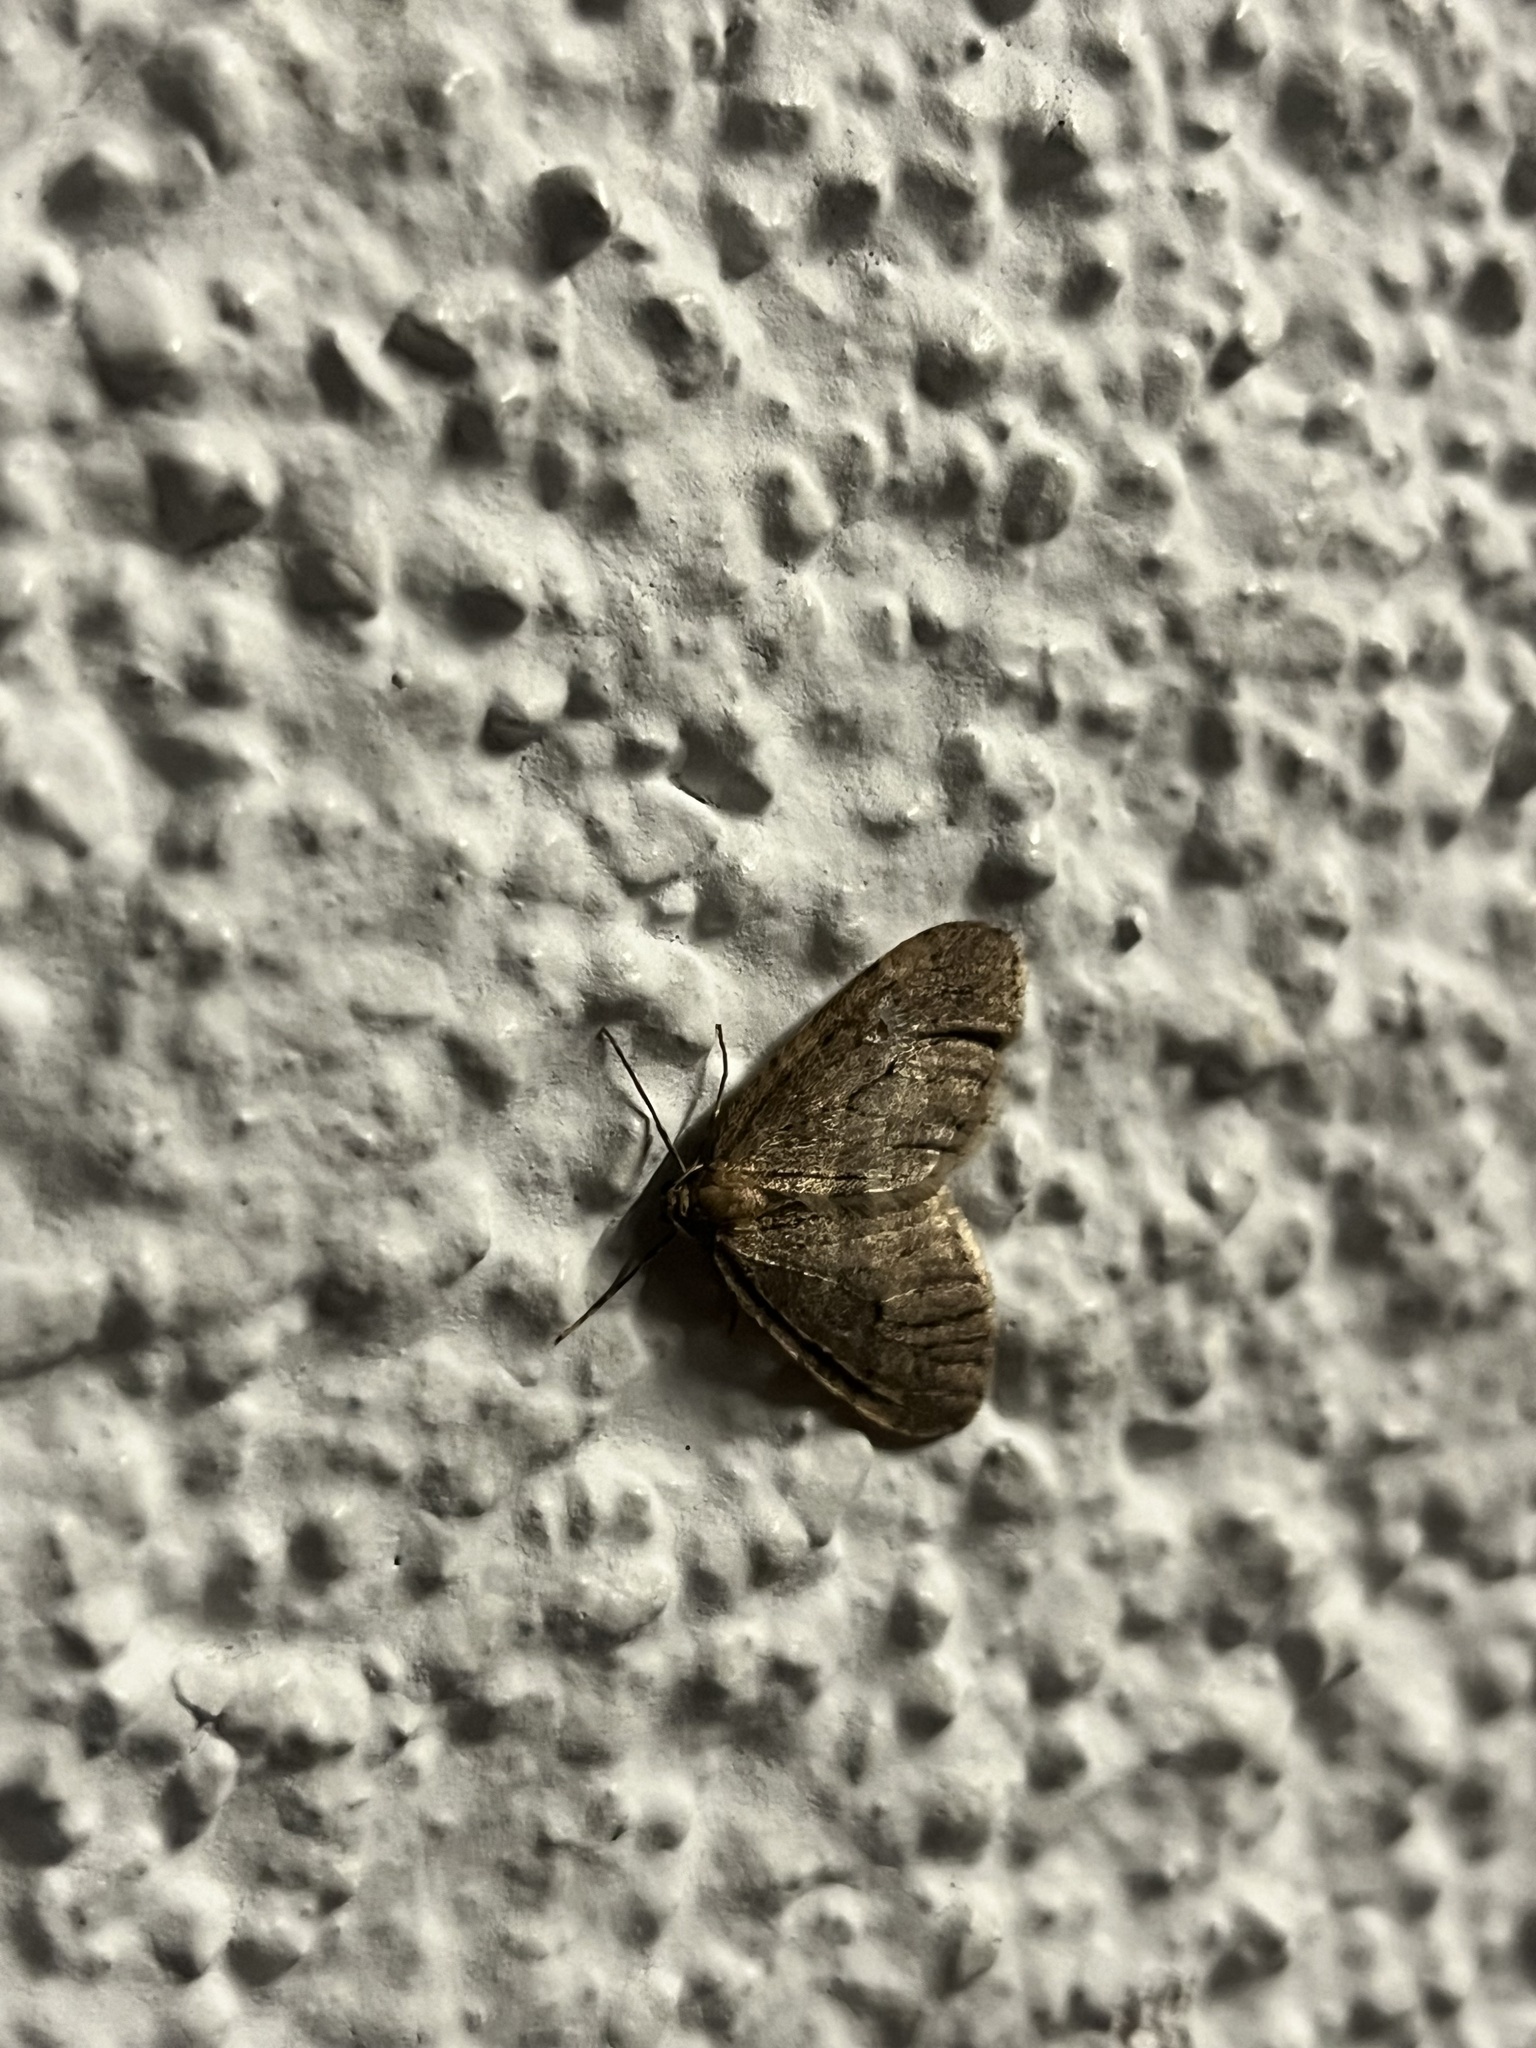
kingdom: Animalia
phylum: Arthropoda
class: Insecta
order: Lepidoptera
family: Geometridae
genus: Operophtera
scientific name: Operophtera brumata
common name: Winter moth
